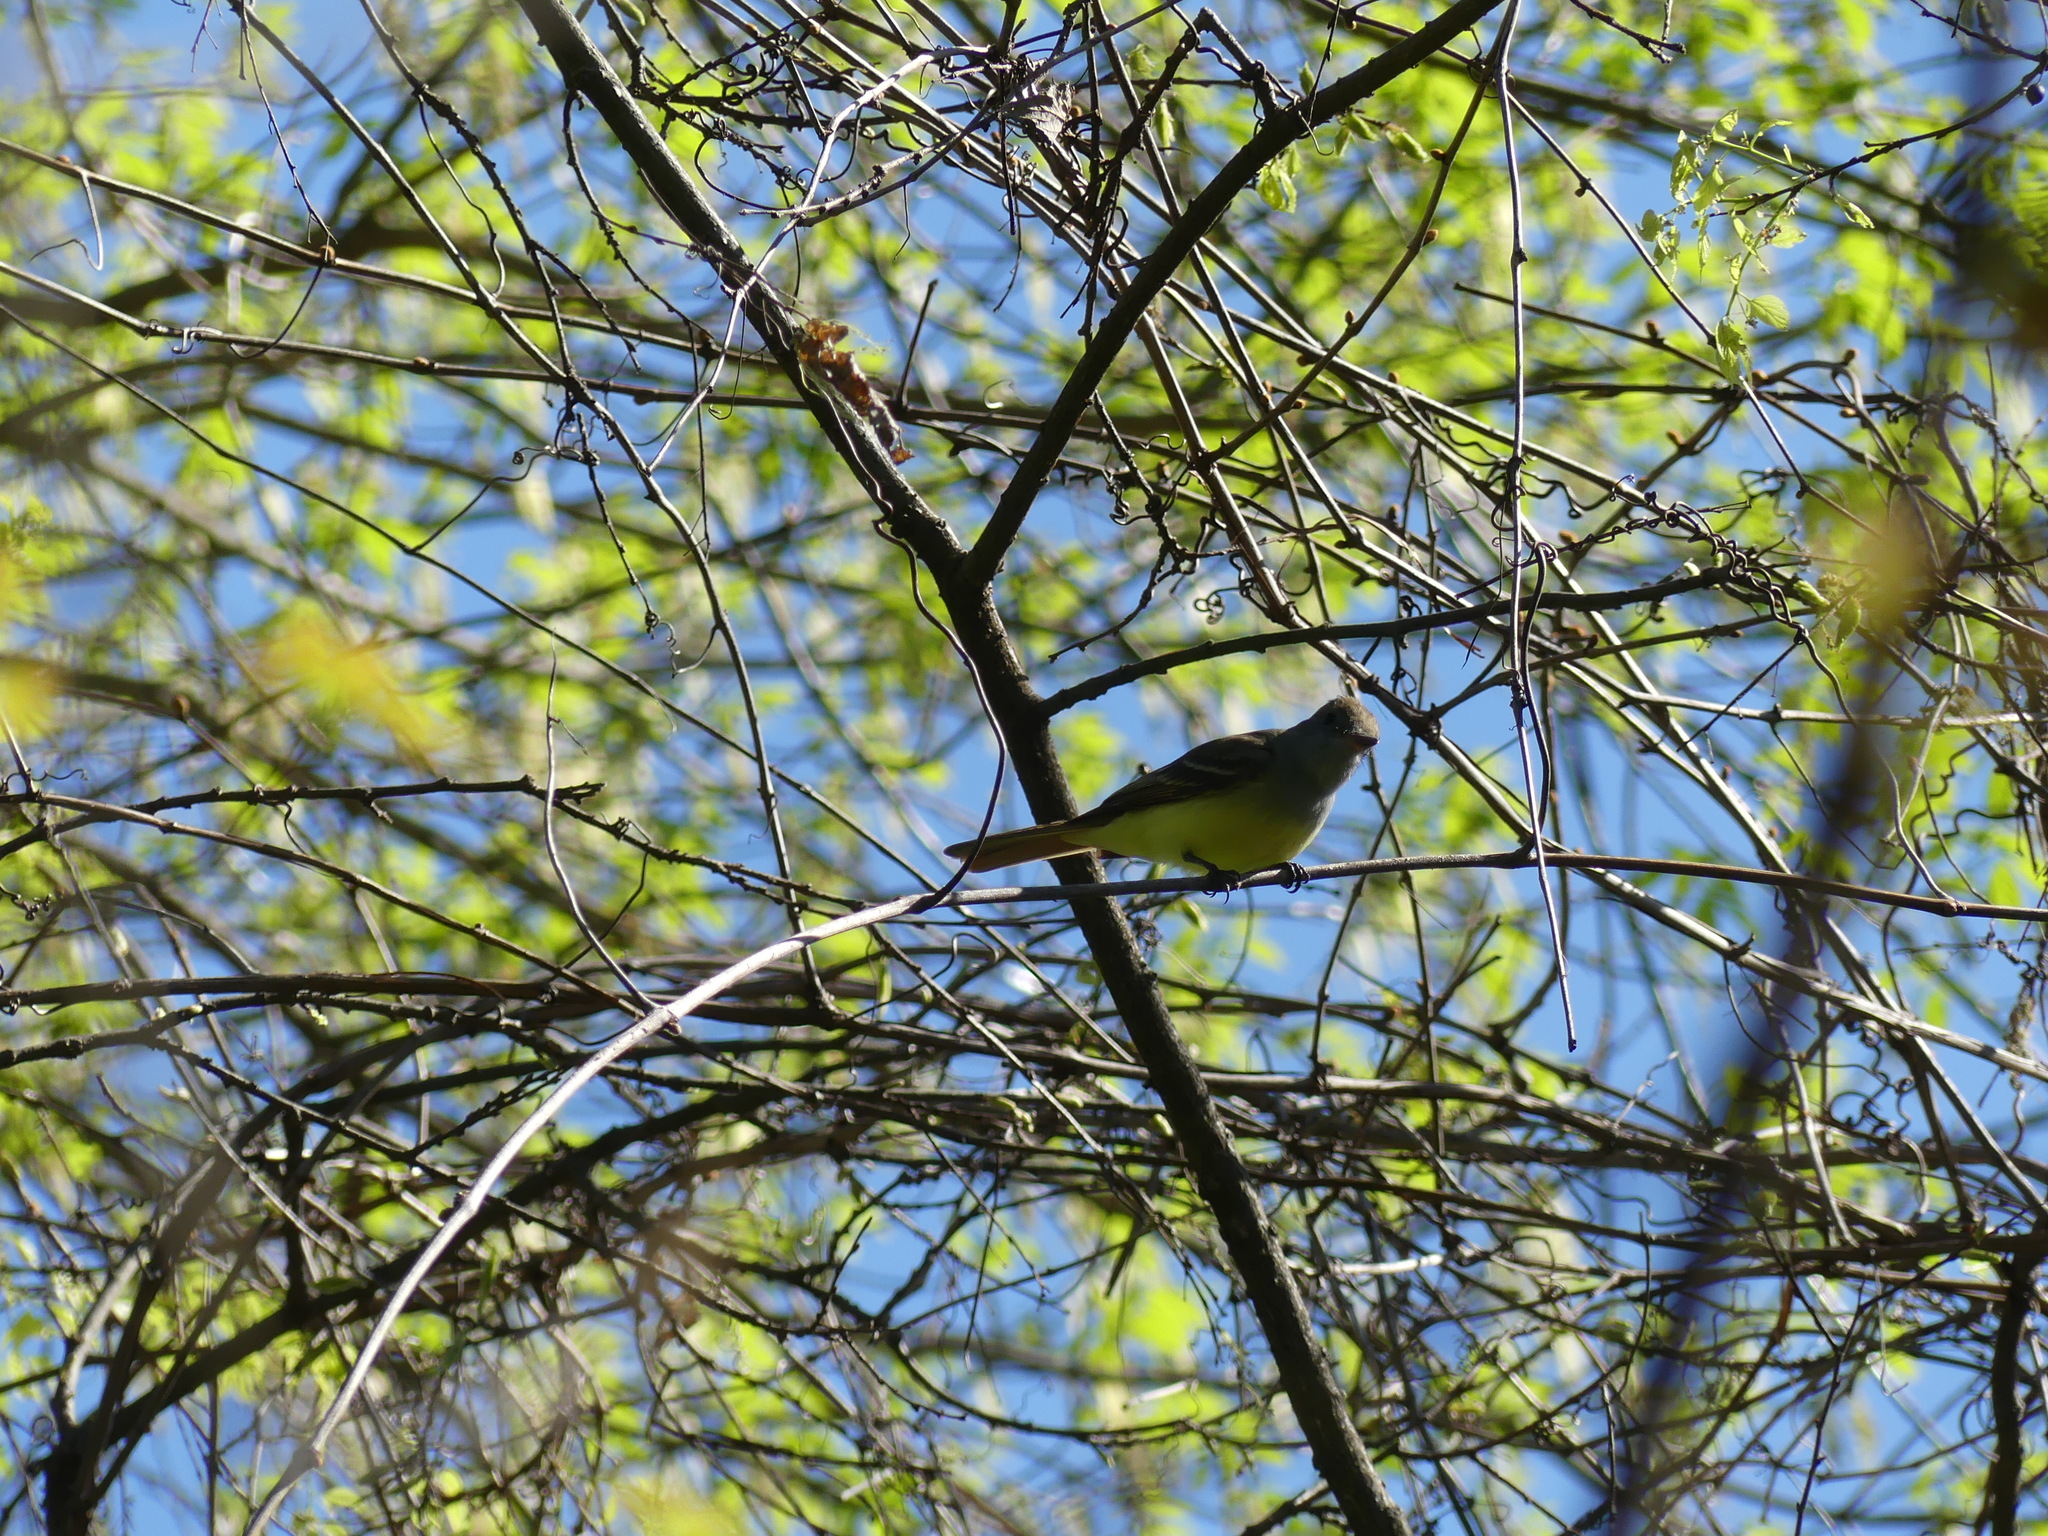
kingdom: Animalia
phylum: Chordata
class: Aves
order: Passeriformes
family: Tyrannidae
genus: Myiarchus
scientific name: Myiarchus crinitus
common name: Great crested flycatcher
